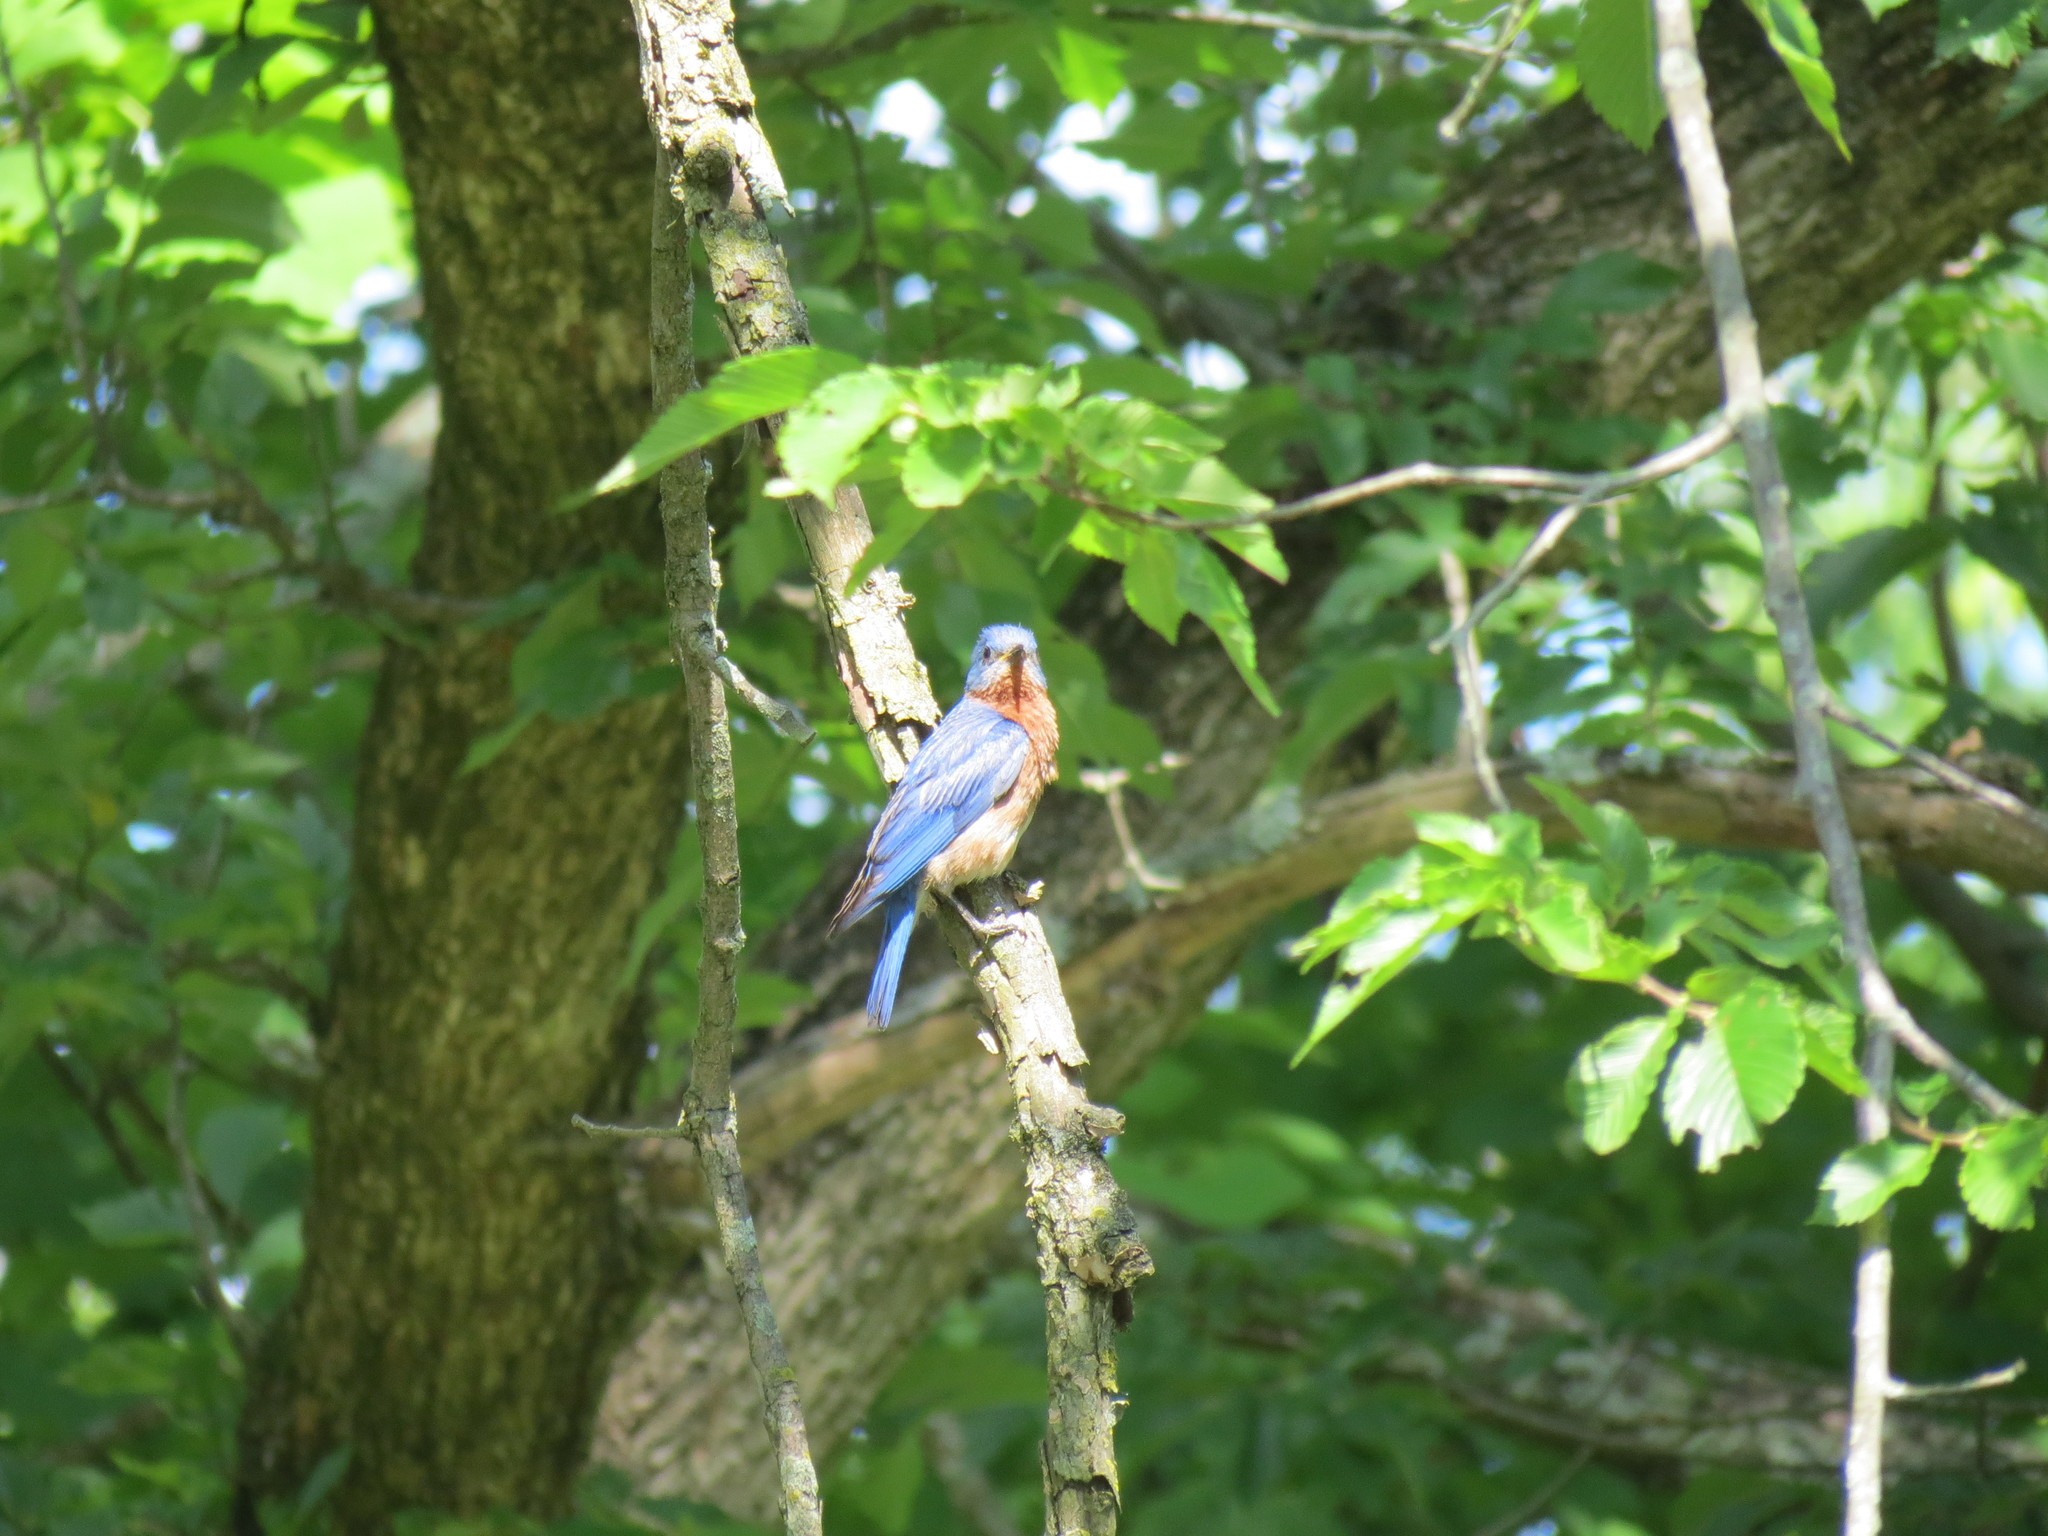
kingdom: Animalia
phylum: Chordata
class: Aves
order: Passeriformes
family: Turdidae
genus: Sialia
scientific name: Sialia sialis
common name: Eastern bluebird
